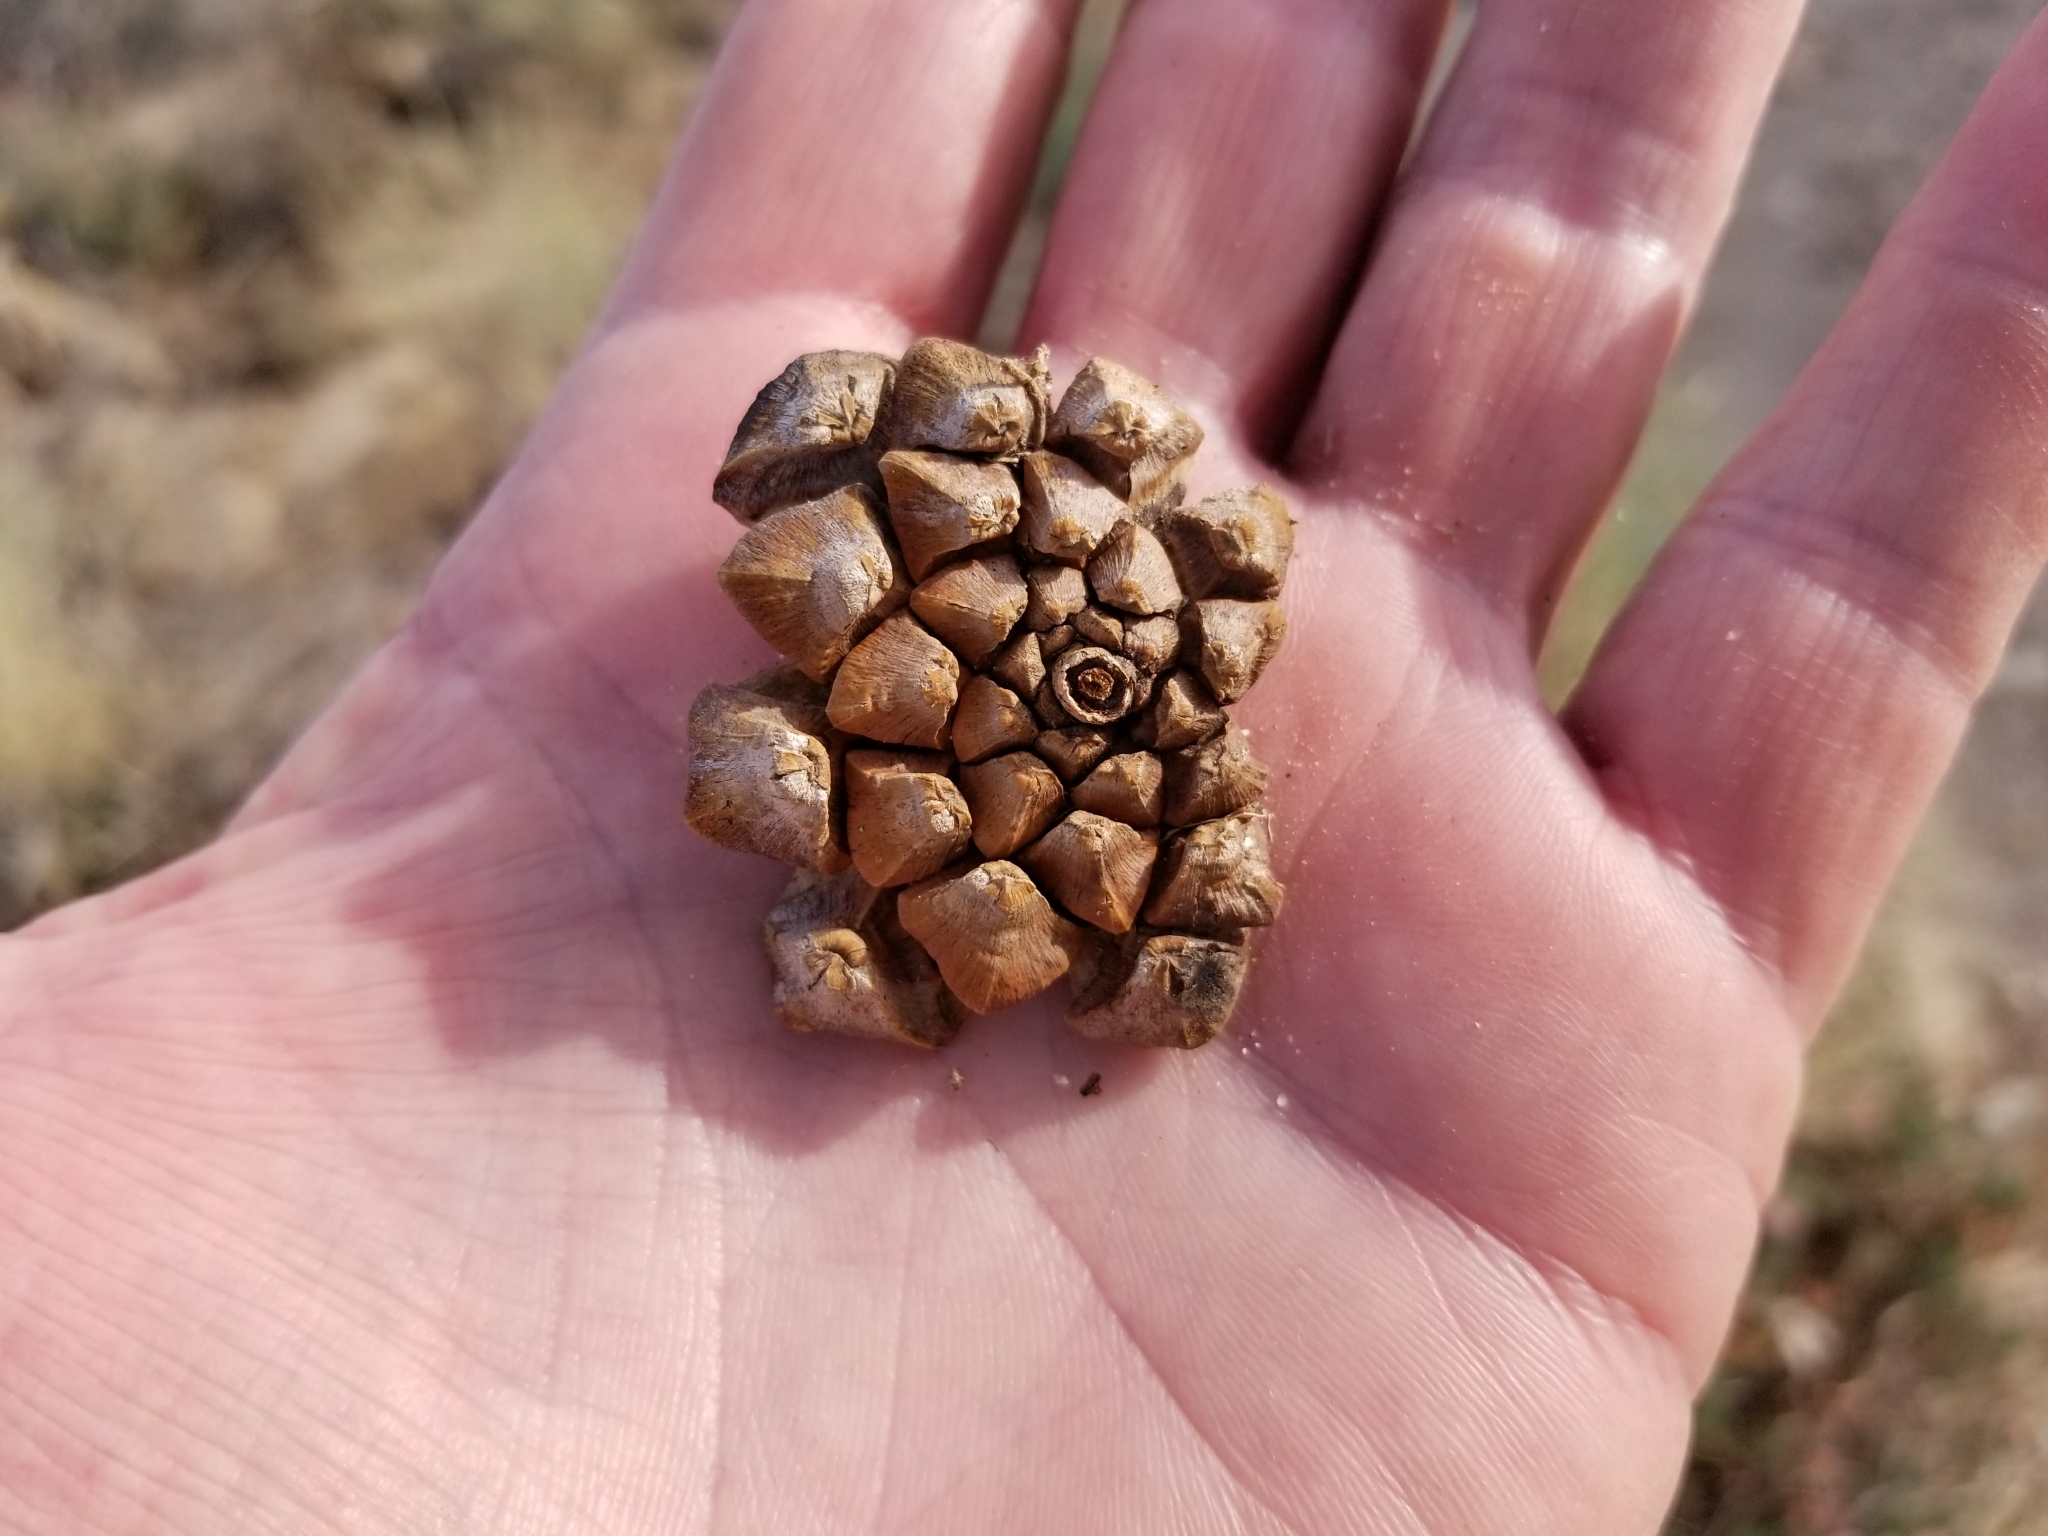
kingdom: Plantae
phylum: Tracheophyta
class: Pinopsida
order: Pinales
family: Pinaceae
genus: Pinus
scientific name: Pinus monophylla
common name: One-leaved nut pine
